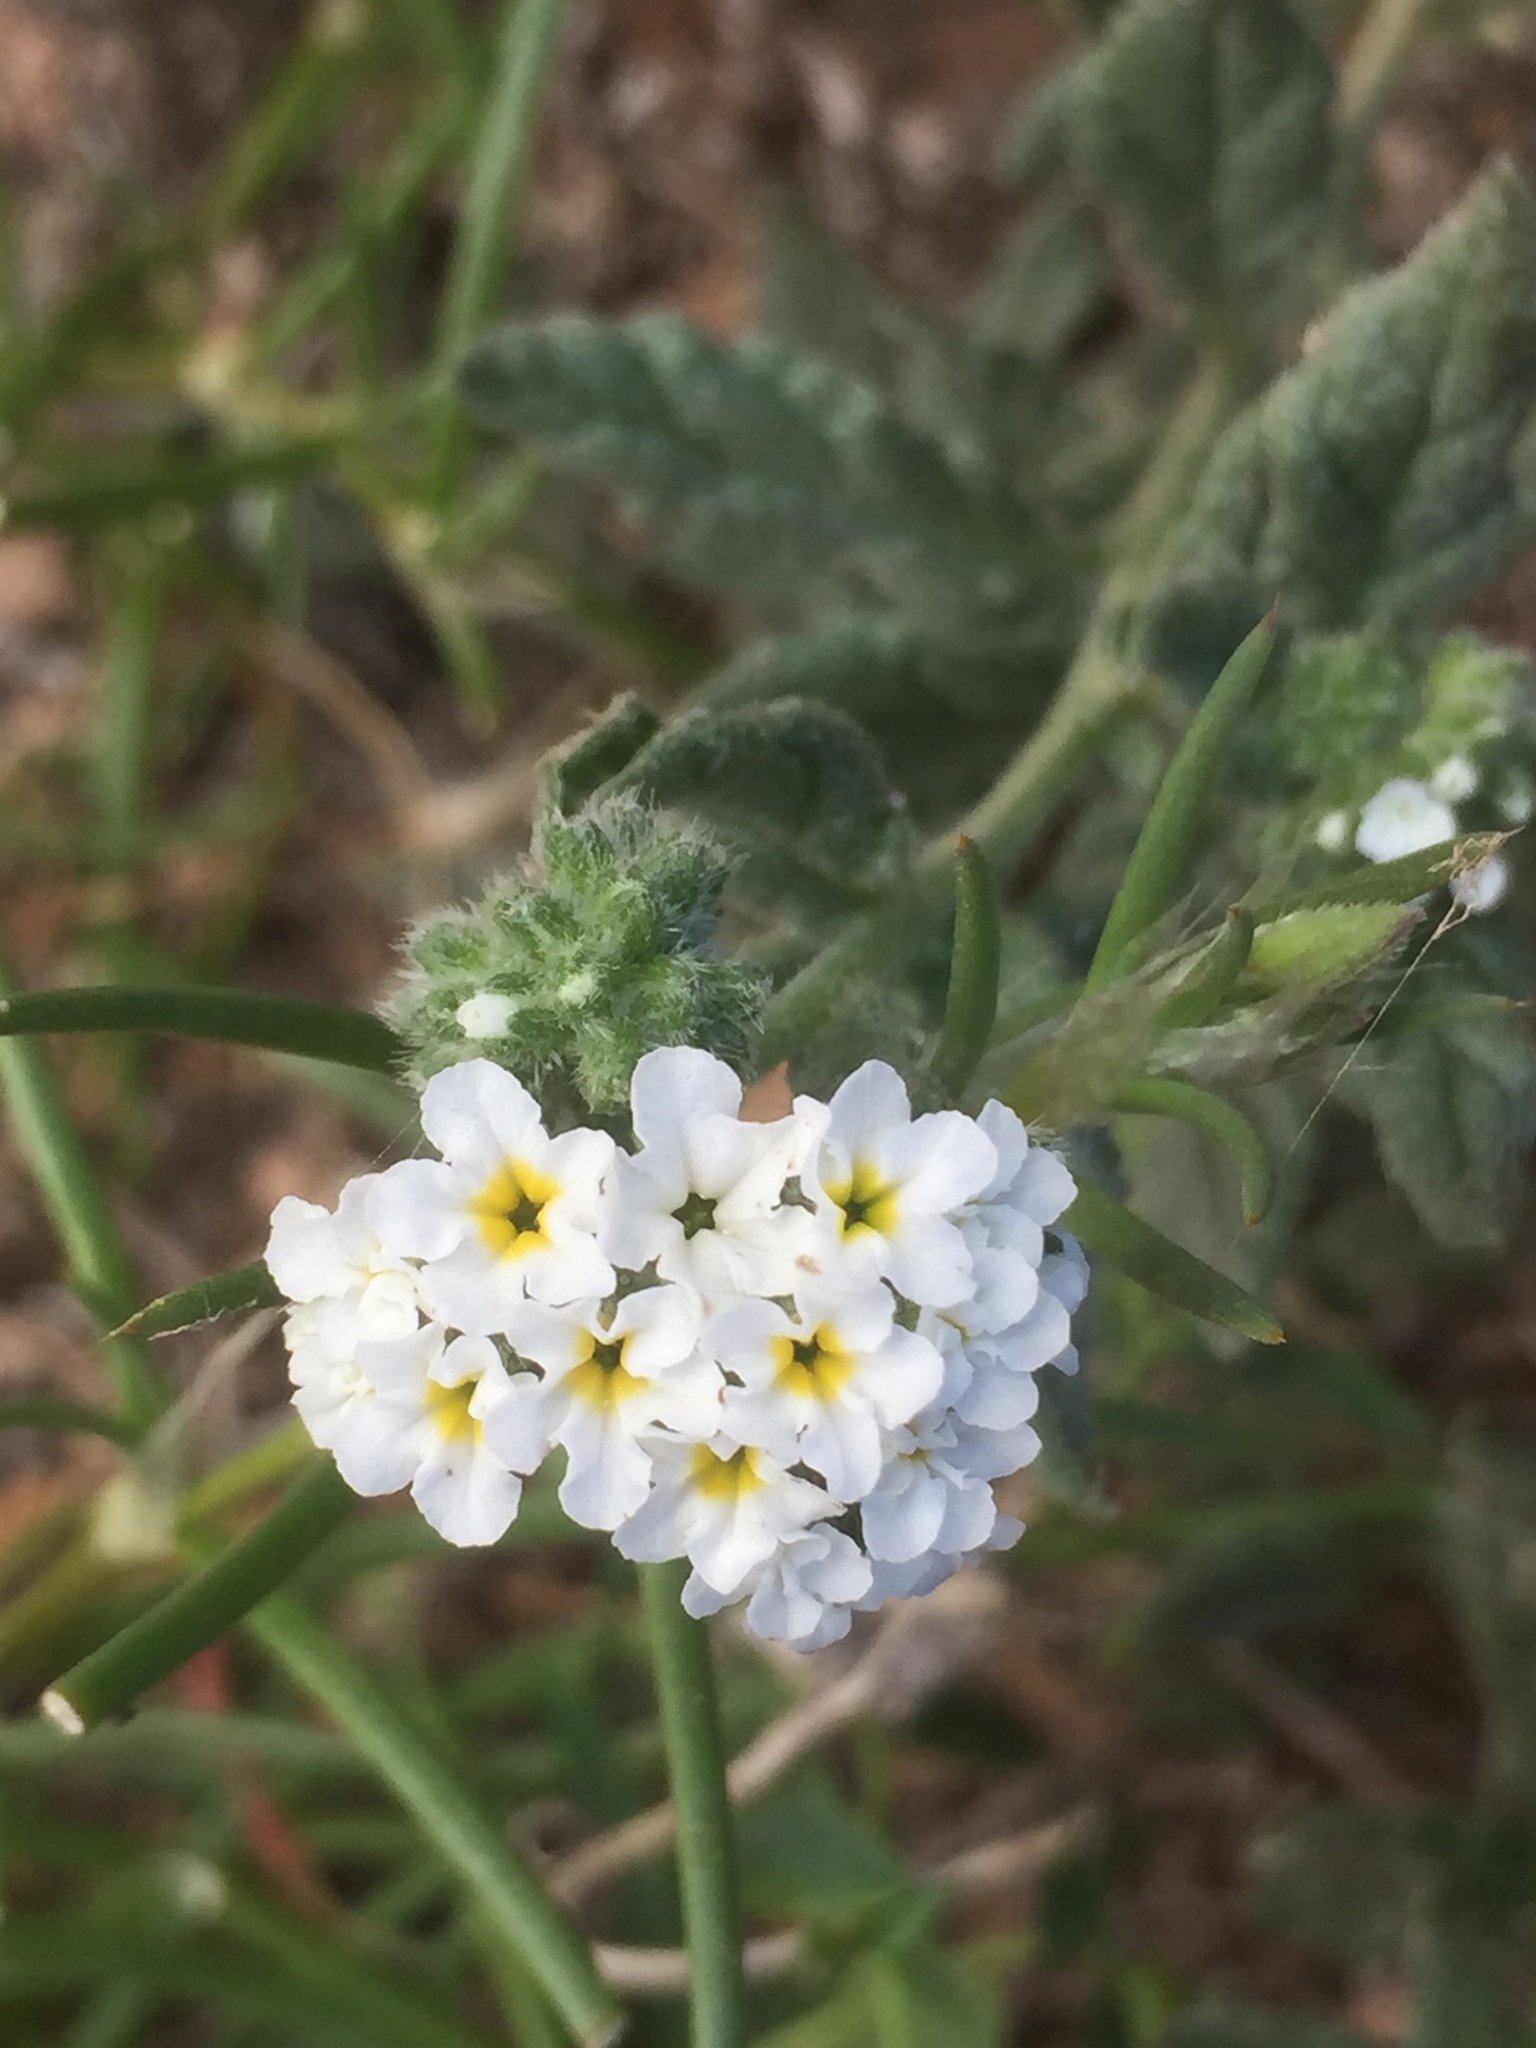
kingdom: Plantae
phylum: Tracheophyta
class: Magnoliopsida
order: Boraginales
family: Heliotropiaceae
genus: Heliotropium
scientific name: Heliotropium europaeum
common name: European heliotrope
